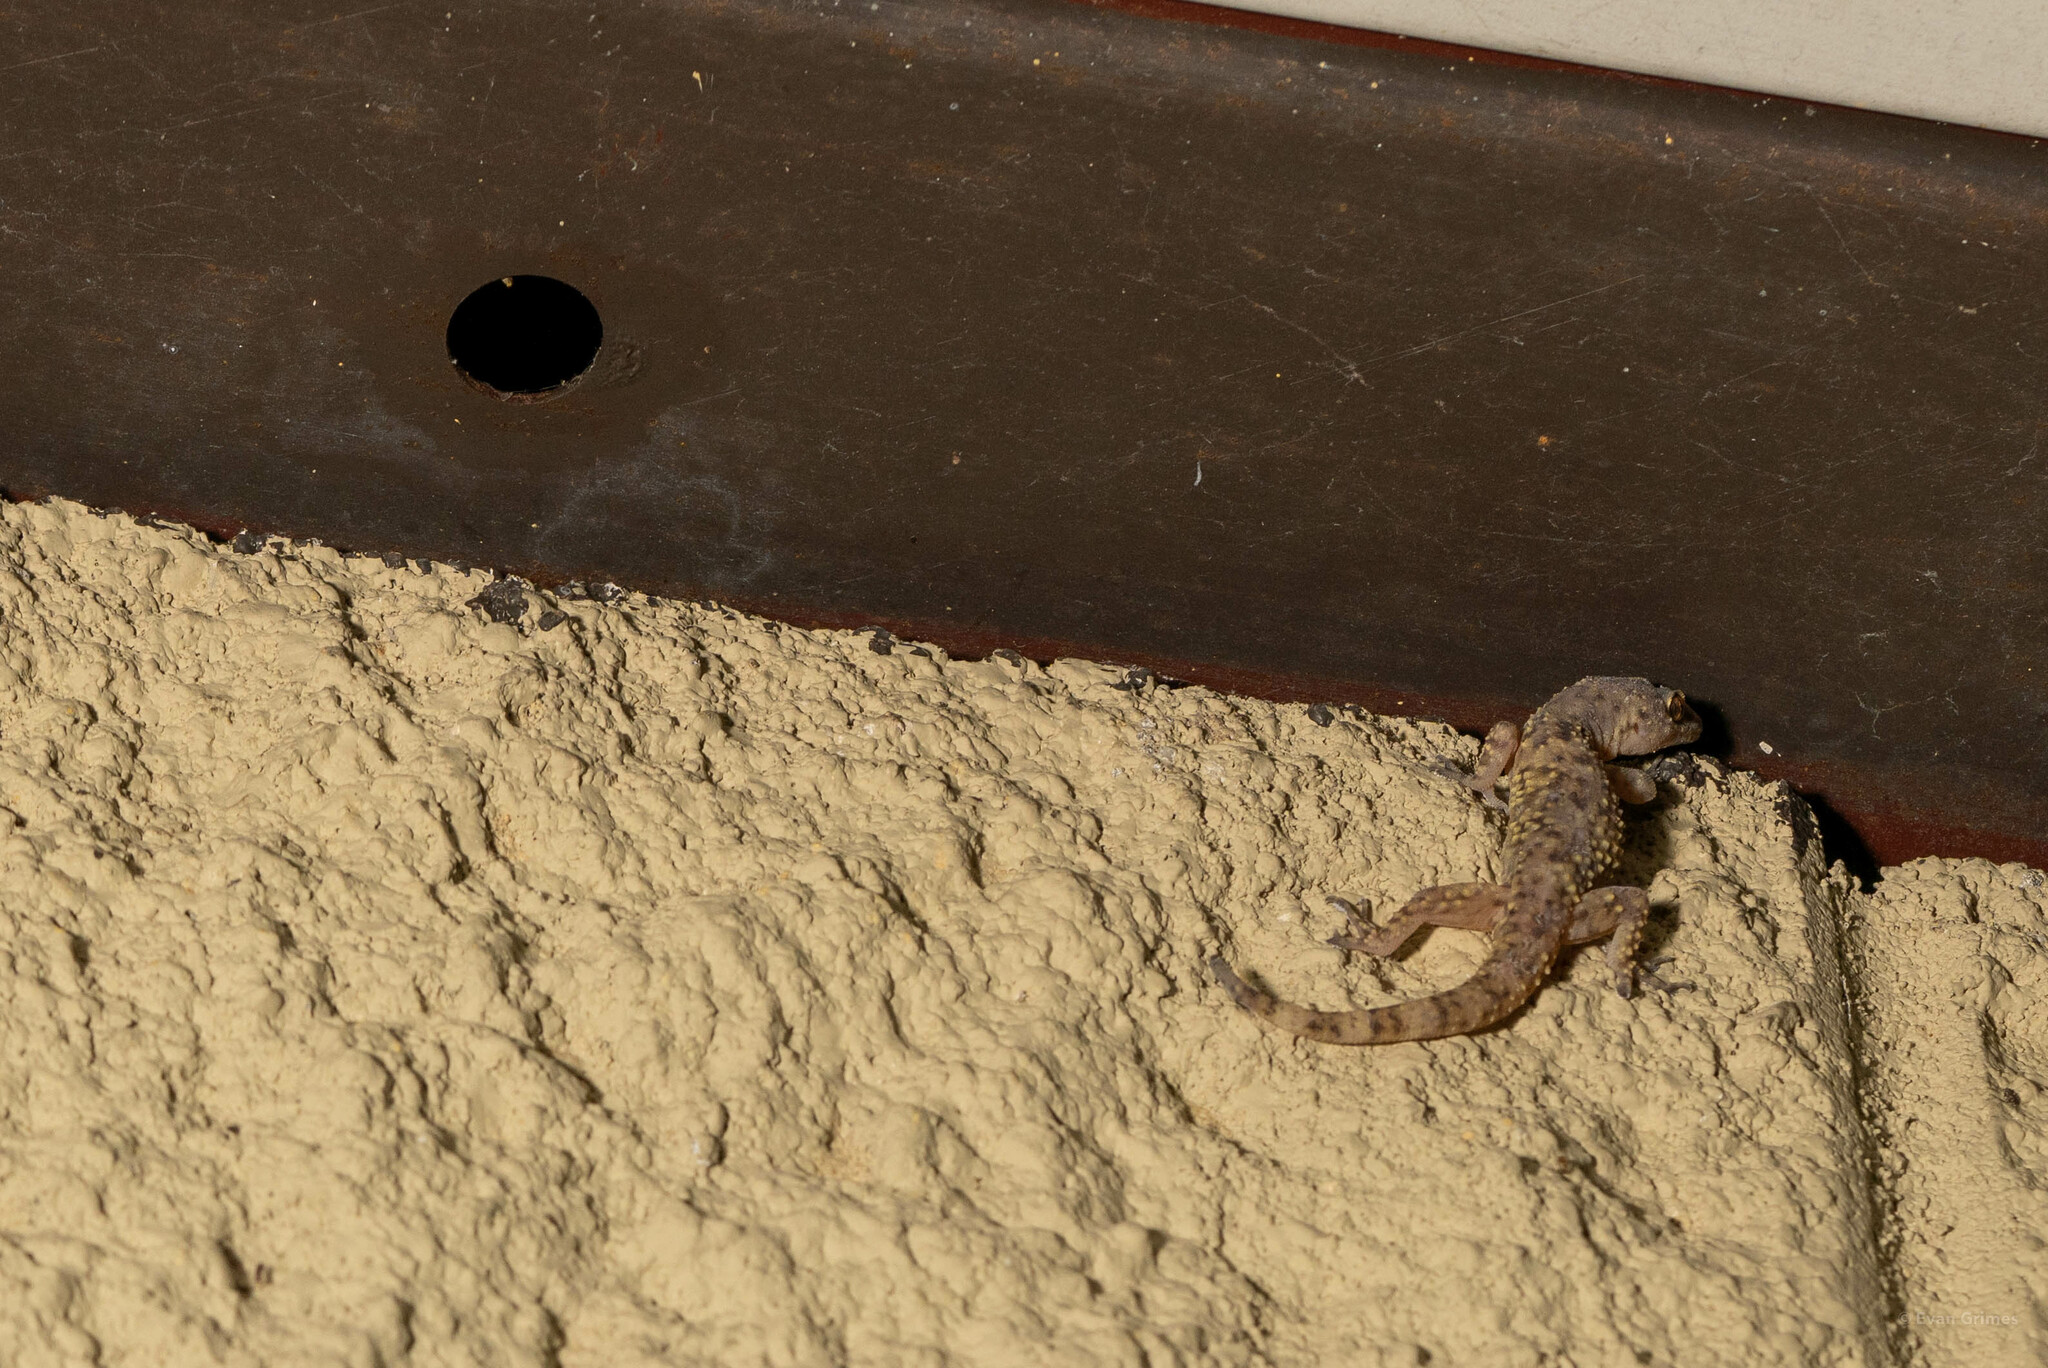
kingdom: Animalia
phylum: Chordata
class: Squamata
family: Gekkonidae
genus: Hemidactylus
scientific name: Hemidactylus turcicus
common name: Turkish gecko
